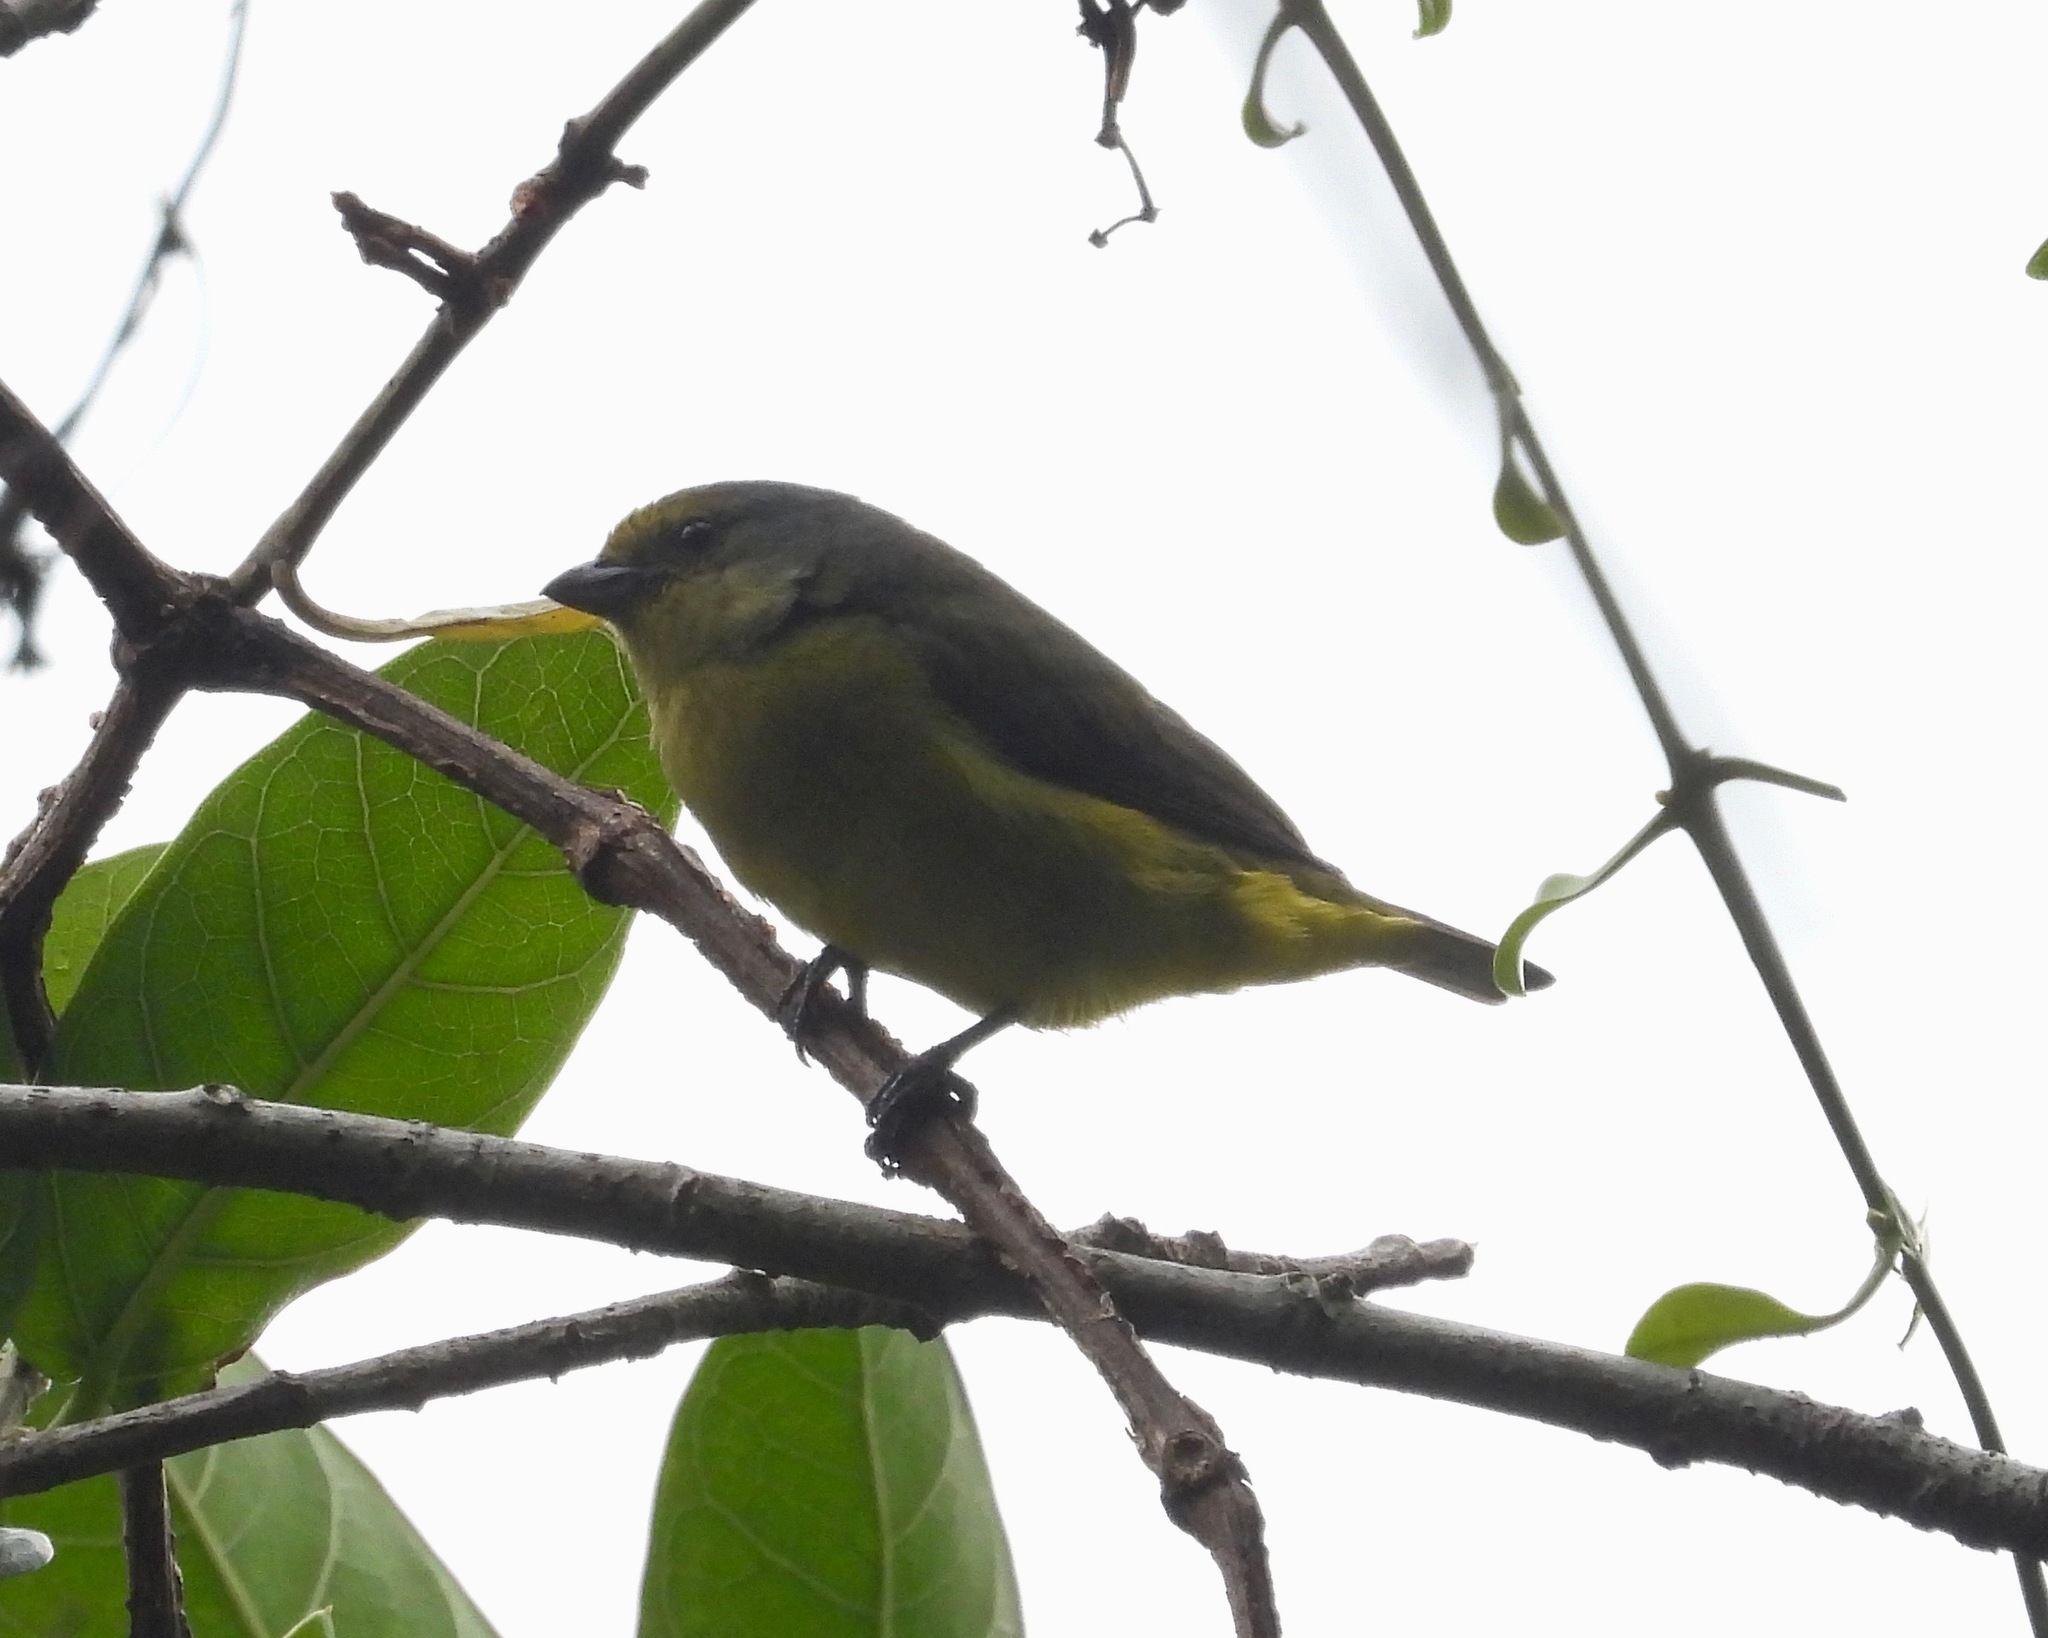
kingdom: Animalia
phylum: Chordata
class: Aves
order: Passeriformes
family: Fringillidae
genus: Euphonia
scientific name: Euphonia affinis
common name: Scrub euphonia
